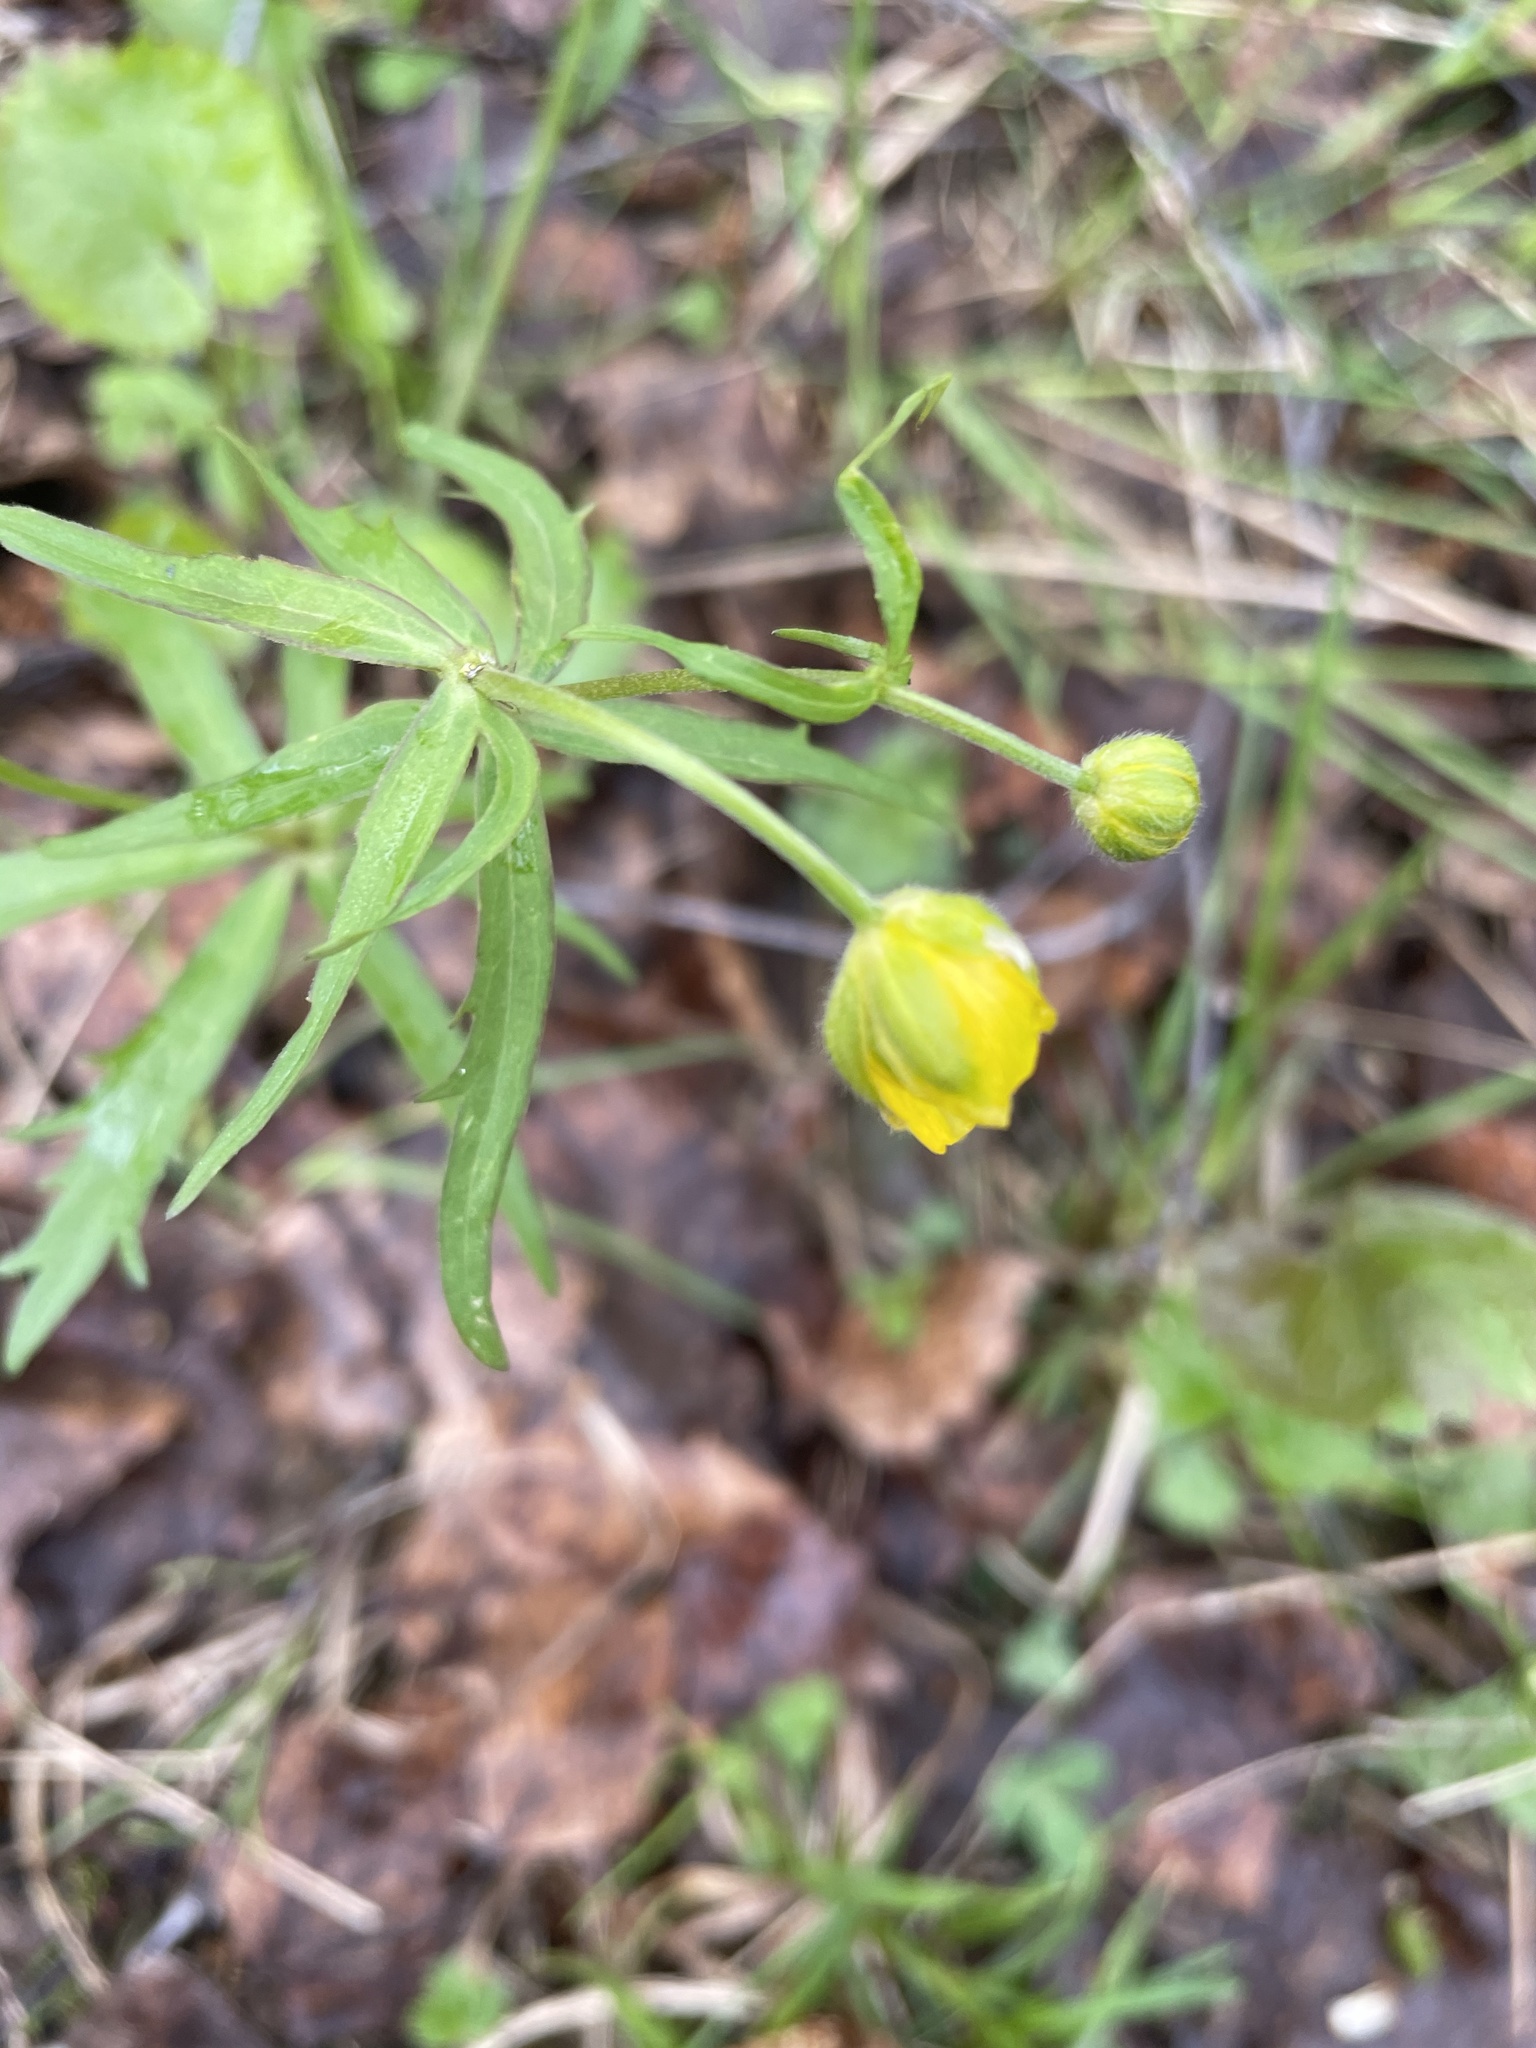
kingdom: Plantae
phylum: Tracheophyta
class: Magnoliopsida
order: Ranunculales
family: Ranunculaceae
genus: Ranunculus
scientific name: Ranunculus cassubicus
